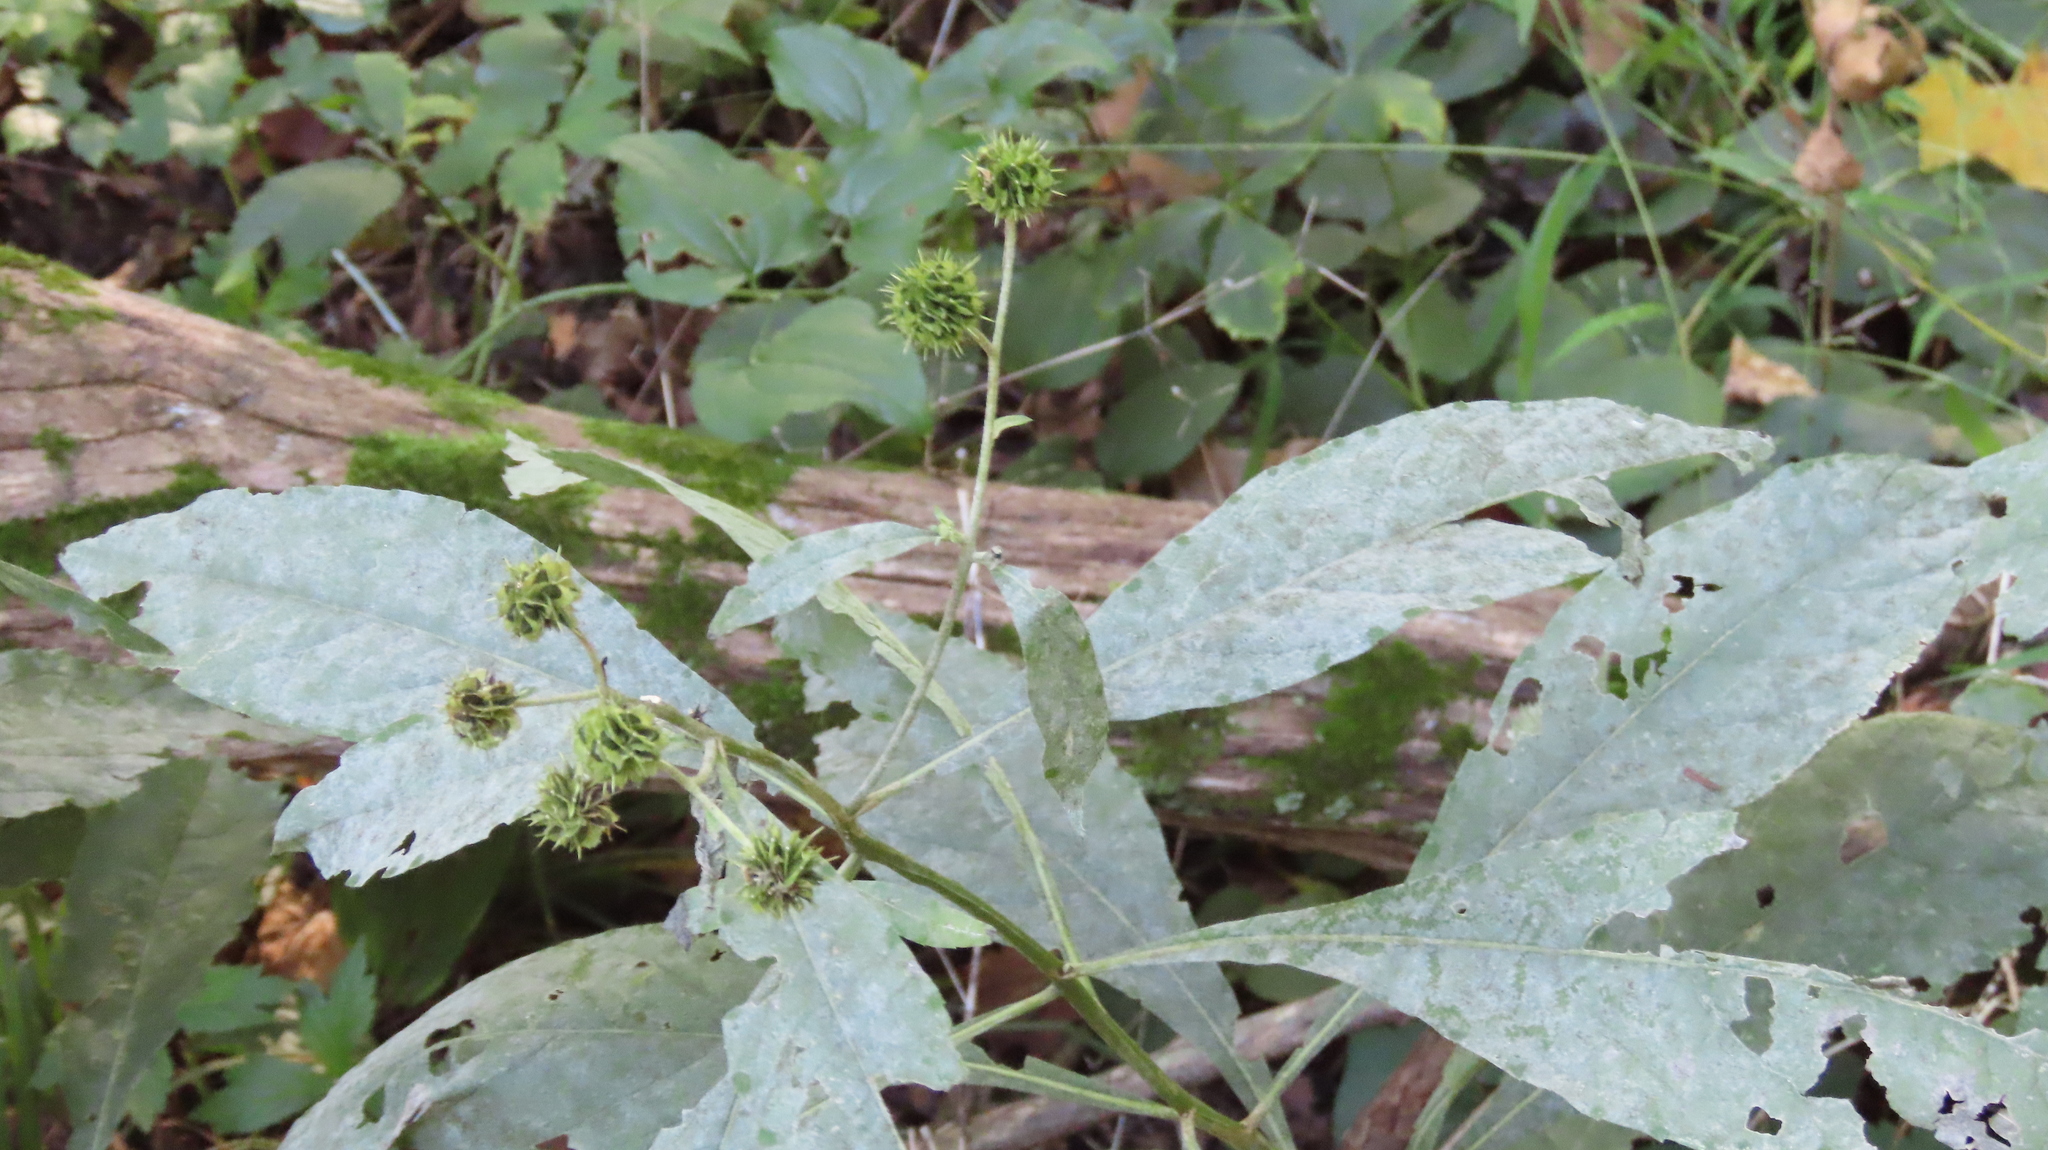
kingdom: Plantae
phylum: Tracheophyta
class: Magnoliopsida
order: Asterales
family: Asteraceae
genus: Verbesina
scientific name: Verbesina alternifolia
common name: Wingstem
